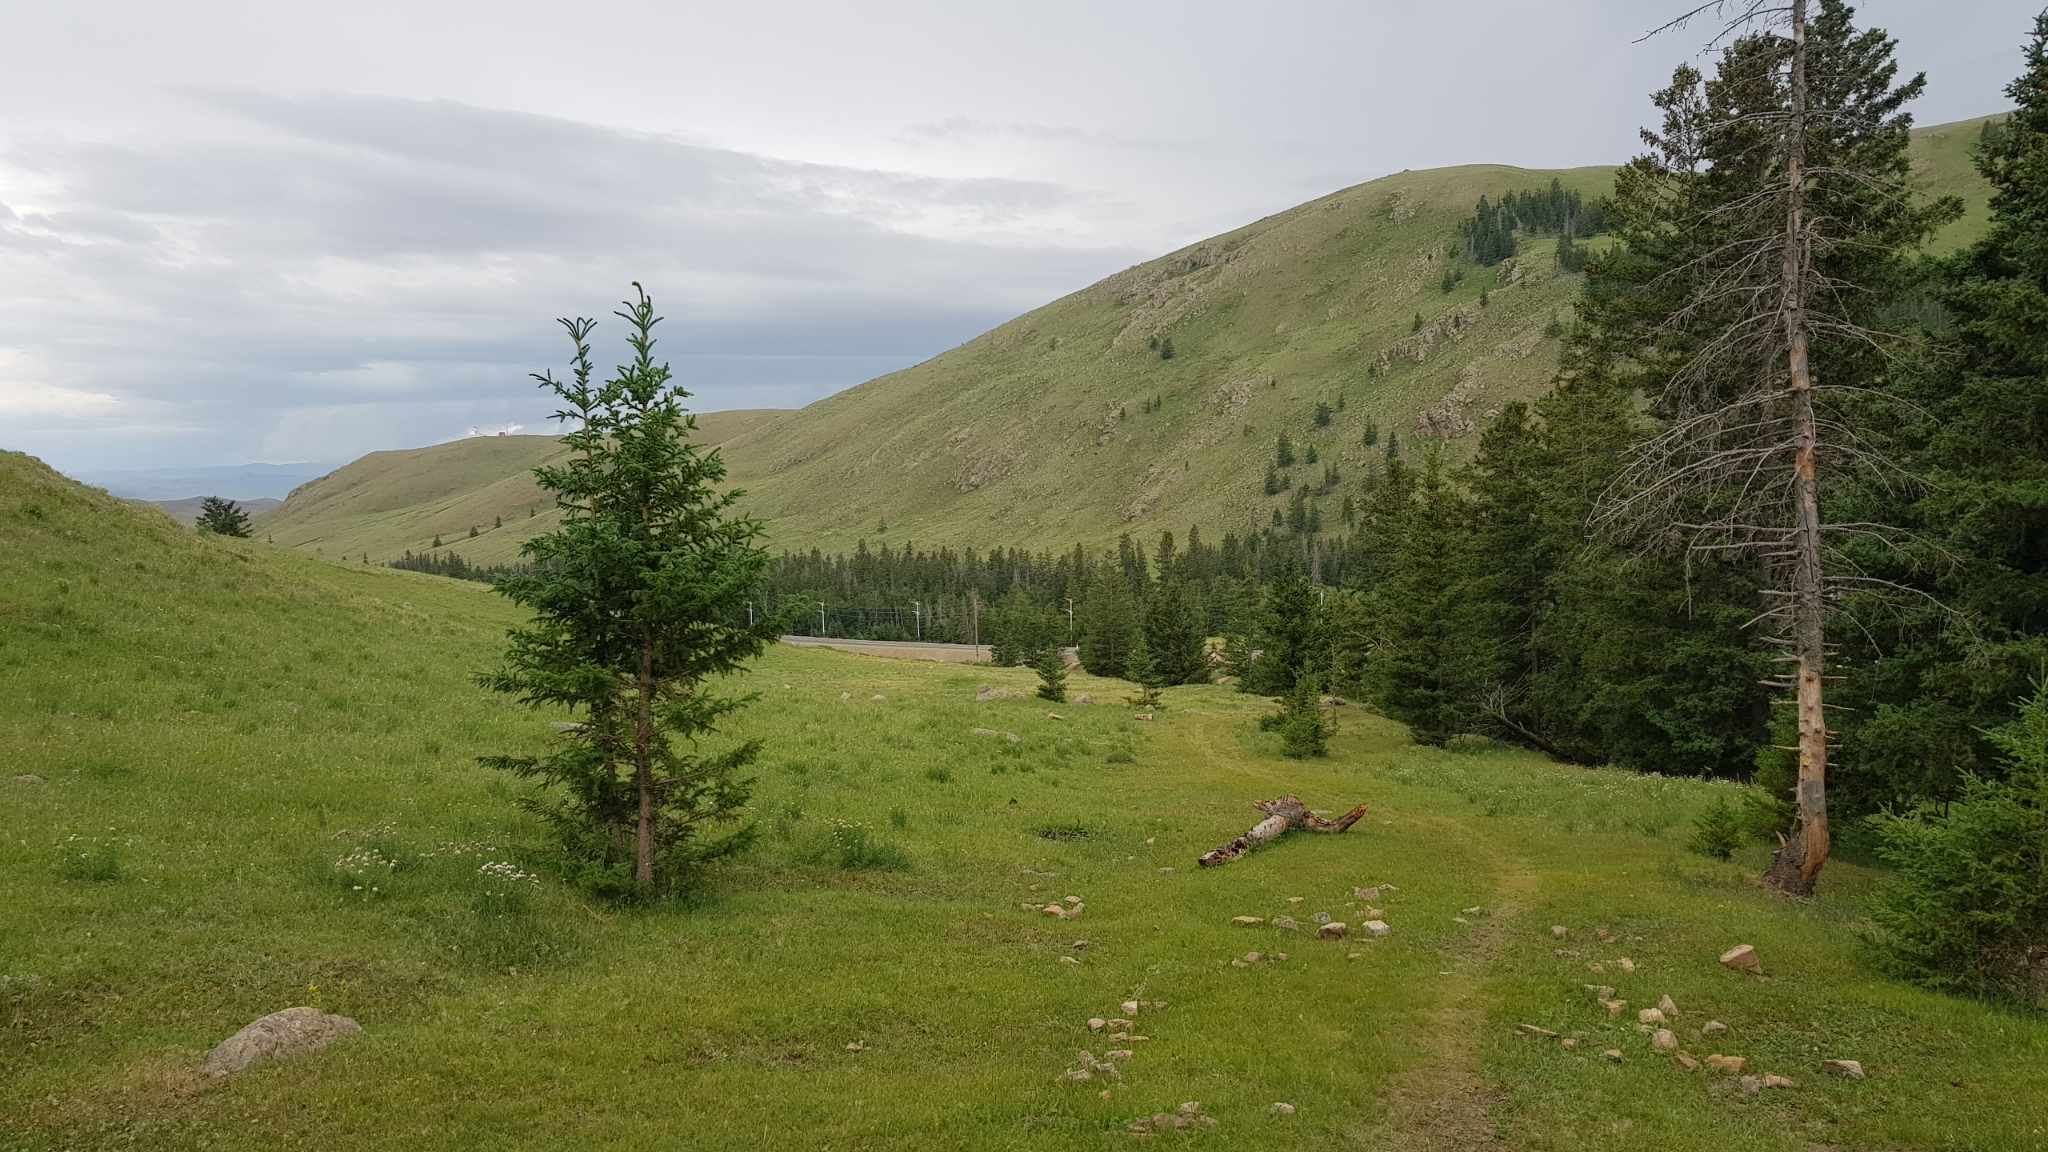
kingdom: Plantae
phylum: Tracheophyta
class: Pinopsida
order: Pinales
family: Pinaceae
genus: Picea
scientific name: Picea obovata
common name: Siberian spruce
